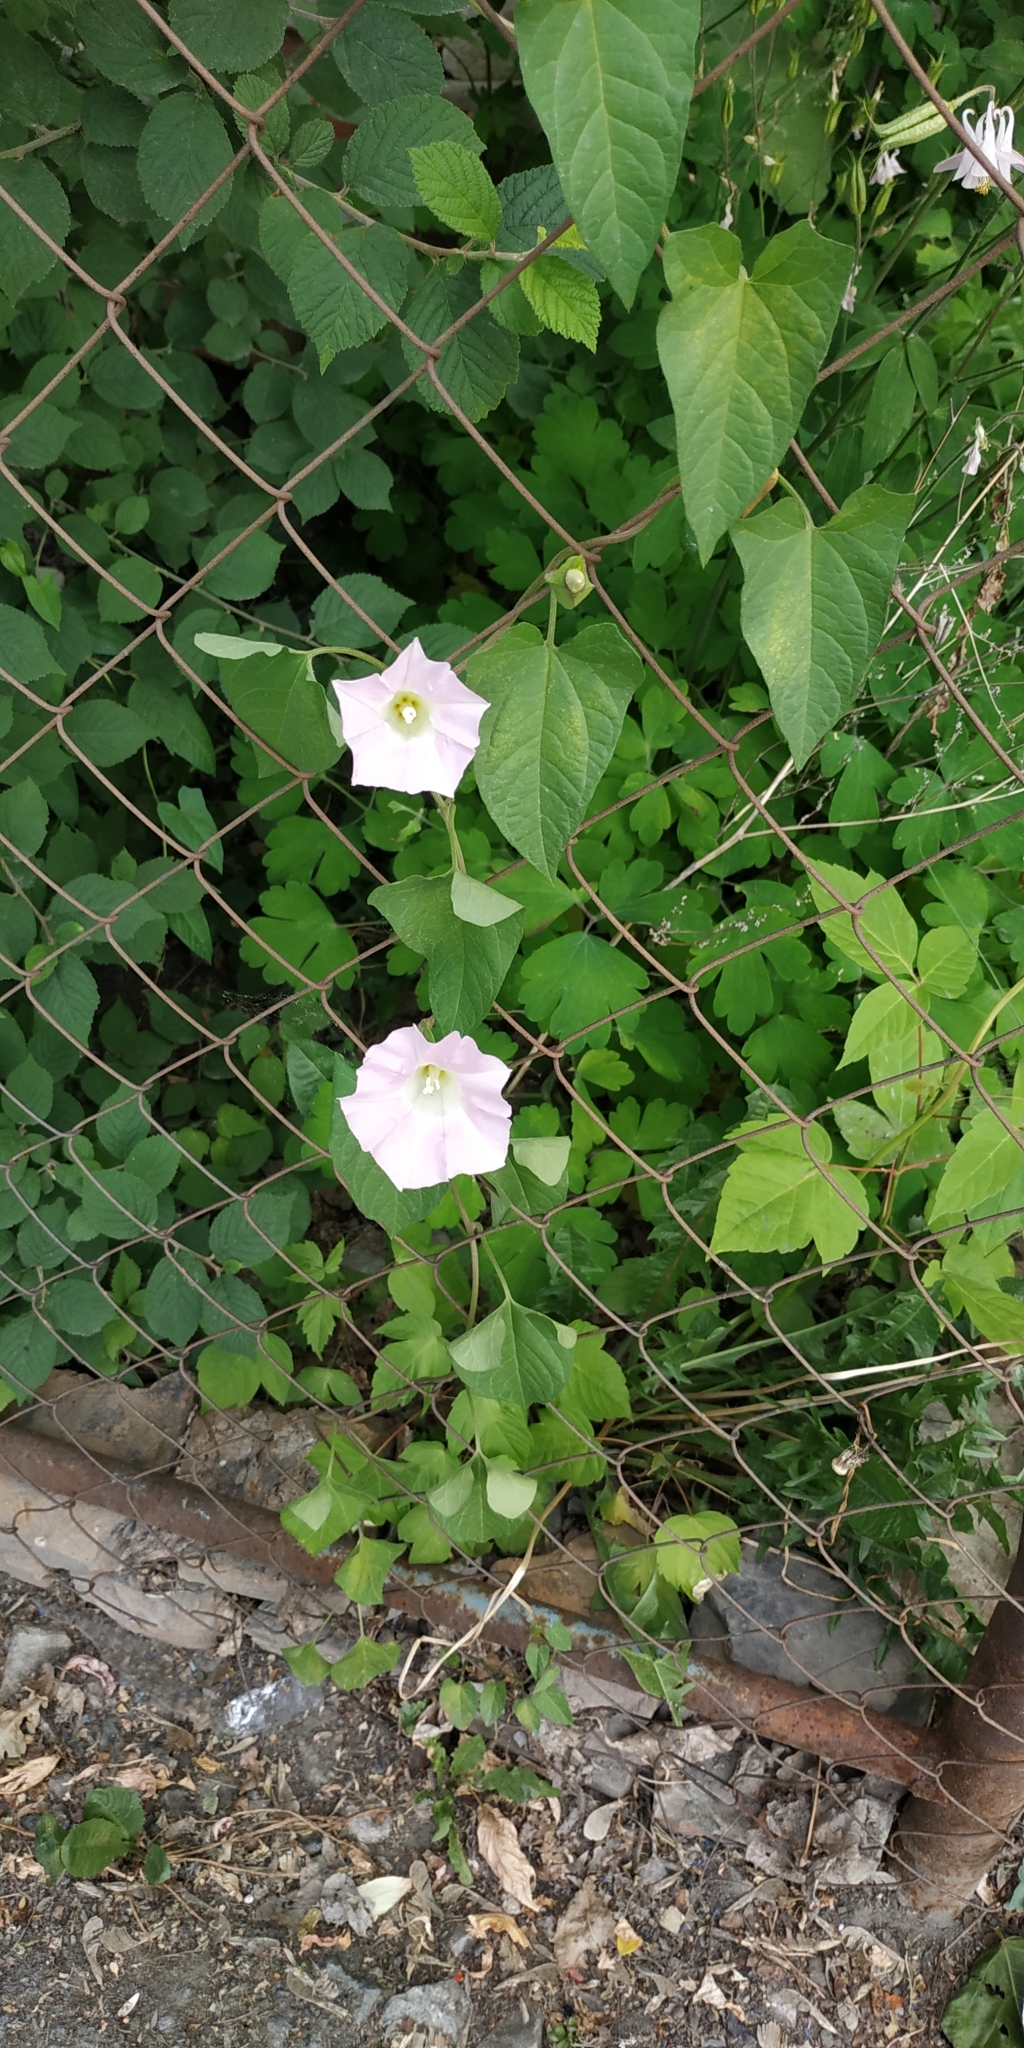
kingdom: Plantae
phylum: Tracheophyta
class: Magnoliopsida
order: Solanales
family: Convolvulaceae
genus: Calystegia
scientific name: Calystegia sepium
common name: Hedge bindweed
